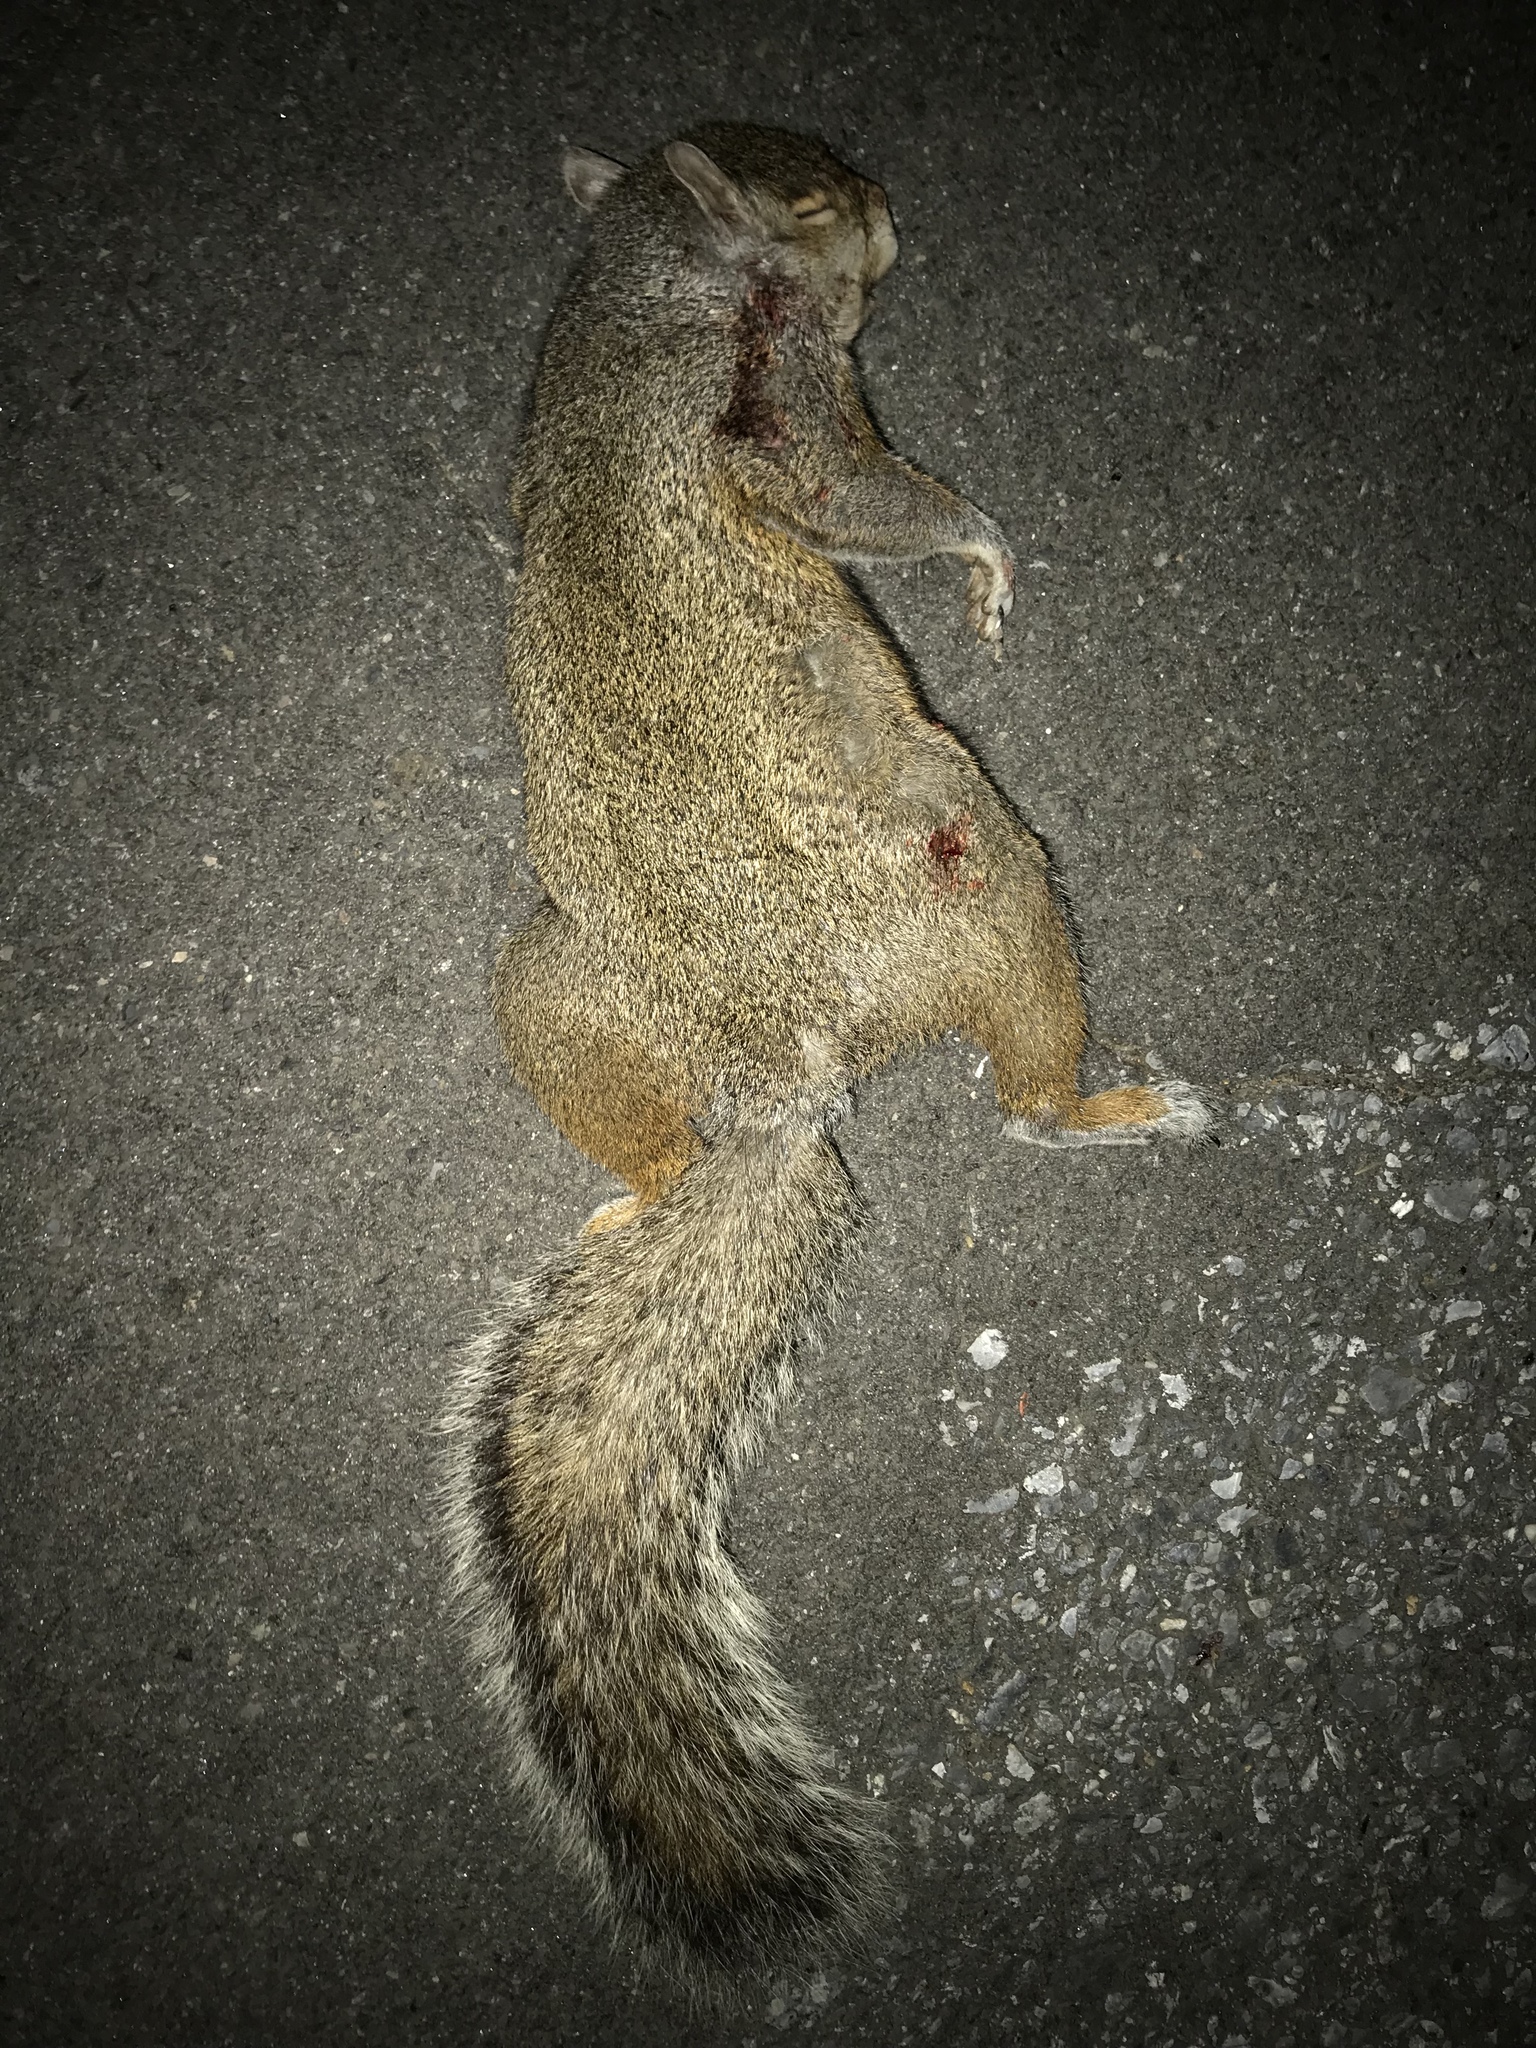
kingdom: Animalia
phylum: Chordata
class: Mammalia
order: Rodentia
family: Sciuridae
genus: Sciurus
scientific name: Sciurus carolinensis
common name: Eastern gray squirrel
